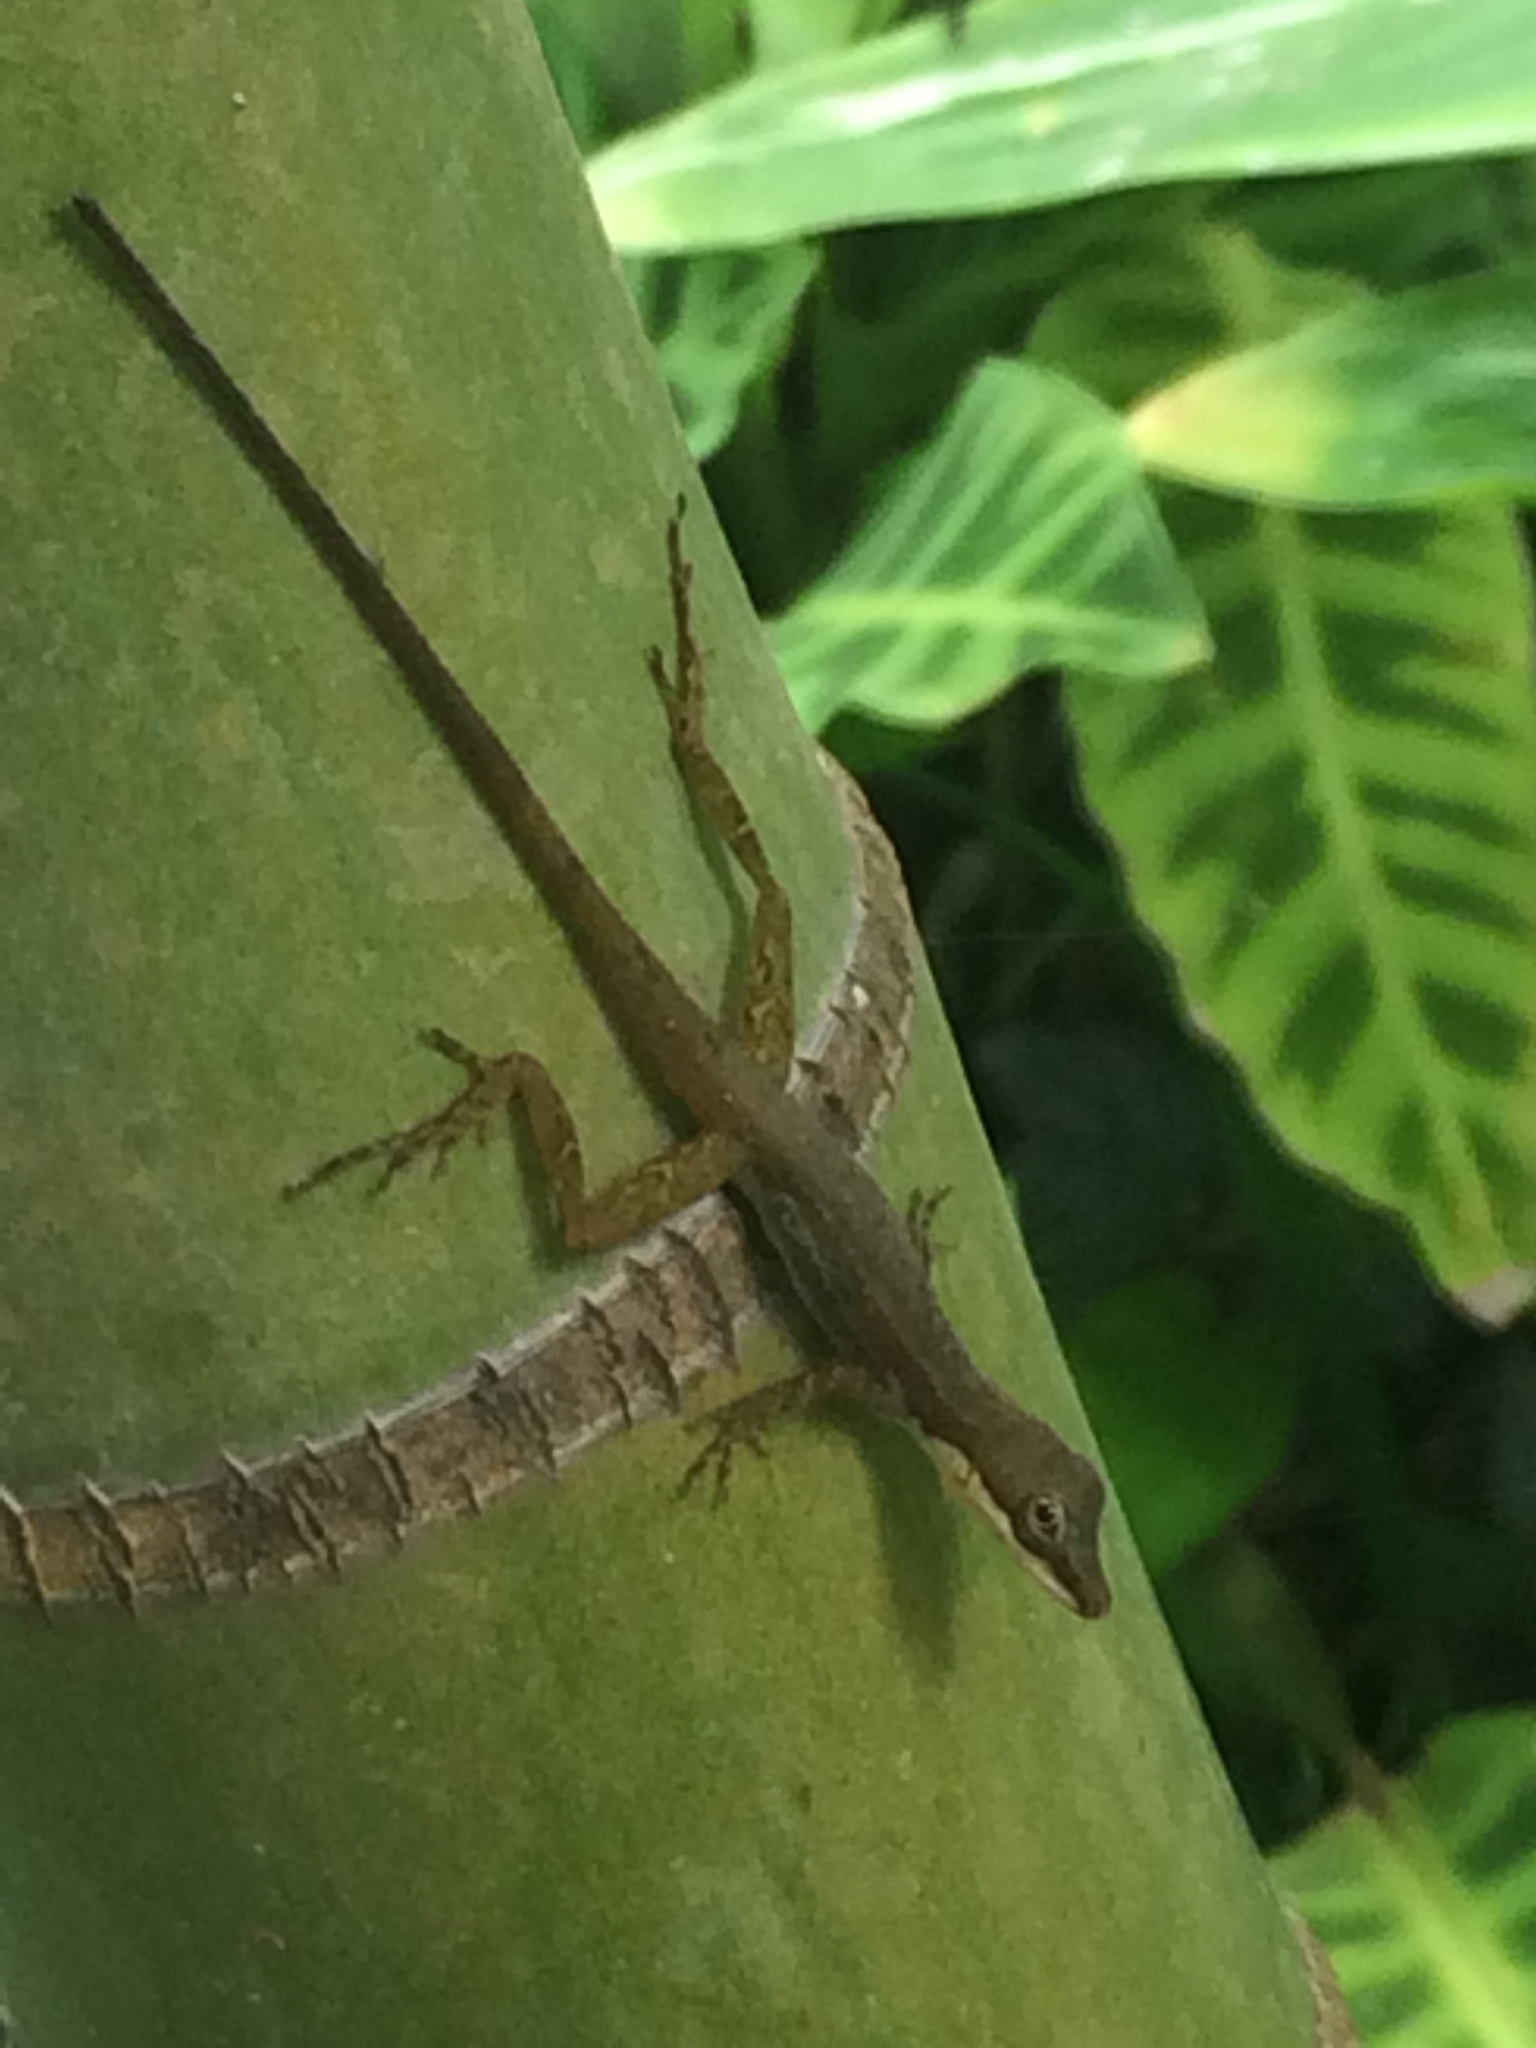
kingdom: Animalia
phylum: Chordata
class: Squamata
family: Dactyloidae
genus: Anolis
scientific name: Anolis limifrons
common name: Border anole
